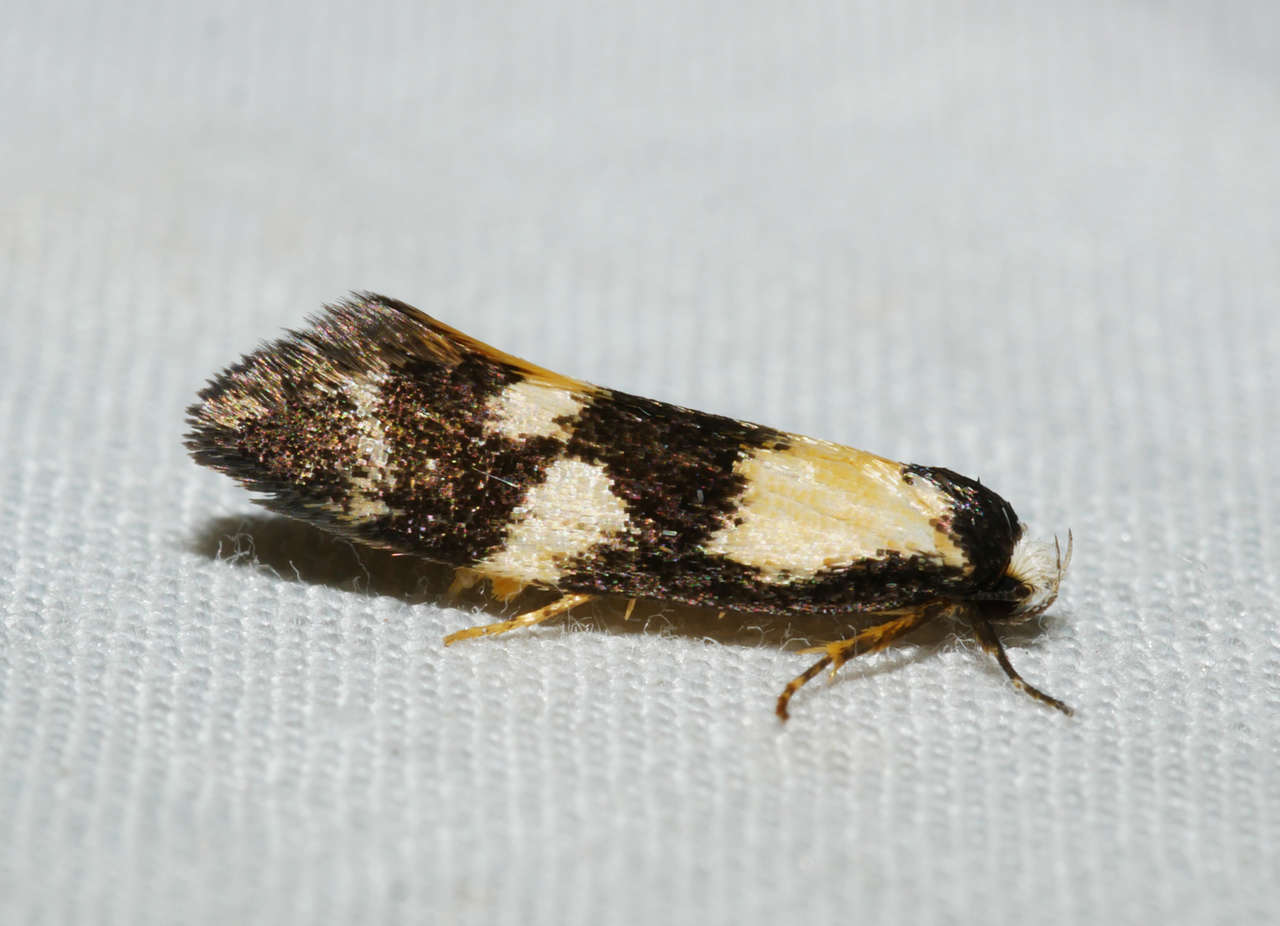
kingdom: Animalia
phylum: Arthropoda
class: Insecta
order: Lepidoptera
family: Oecophoridae
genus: Cosmaresta
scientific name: Cosmaresta archedora
